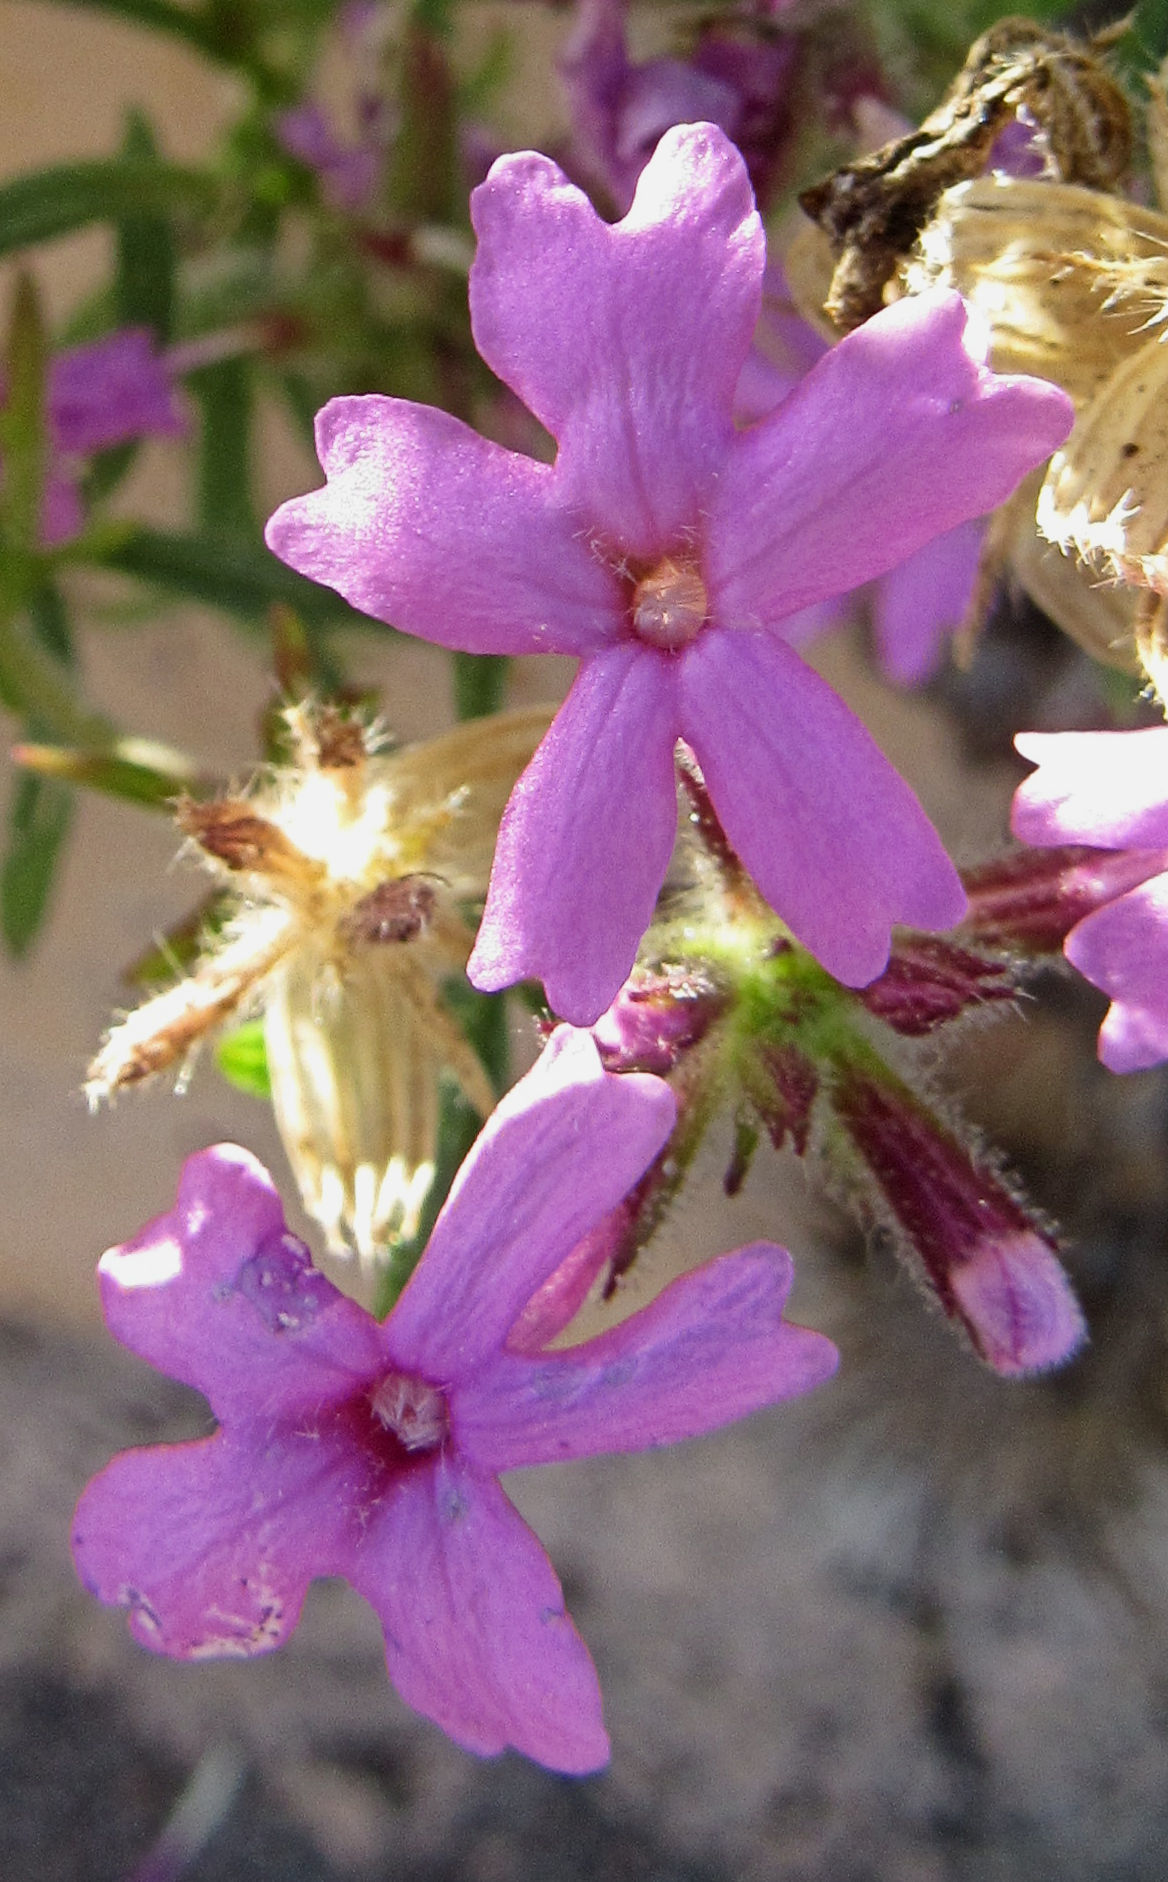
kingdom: Plantae
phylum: Tracheophyta
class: Magnoliopsida
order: Lamiales
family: Verbenaceae
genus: Verbena
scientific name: Verbena bipinnatifida
